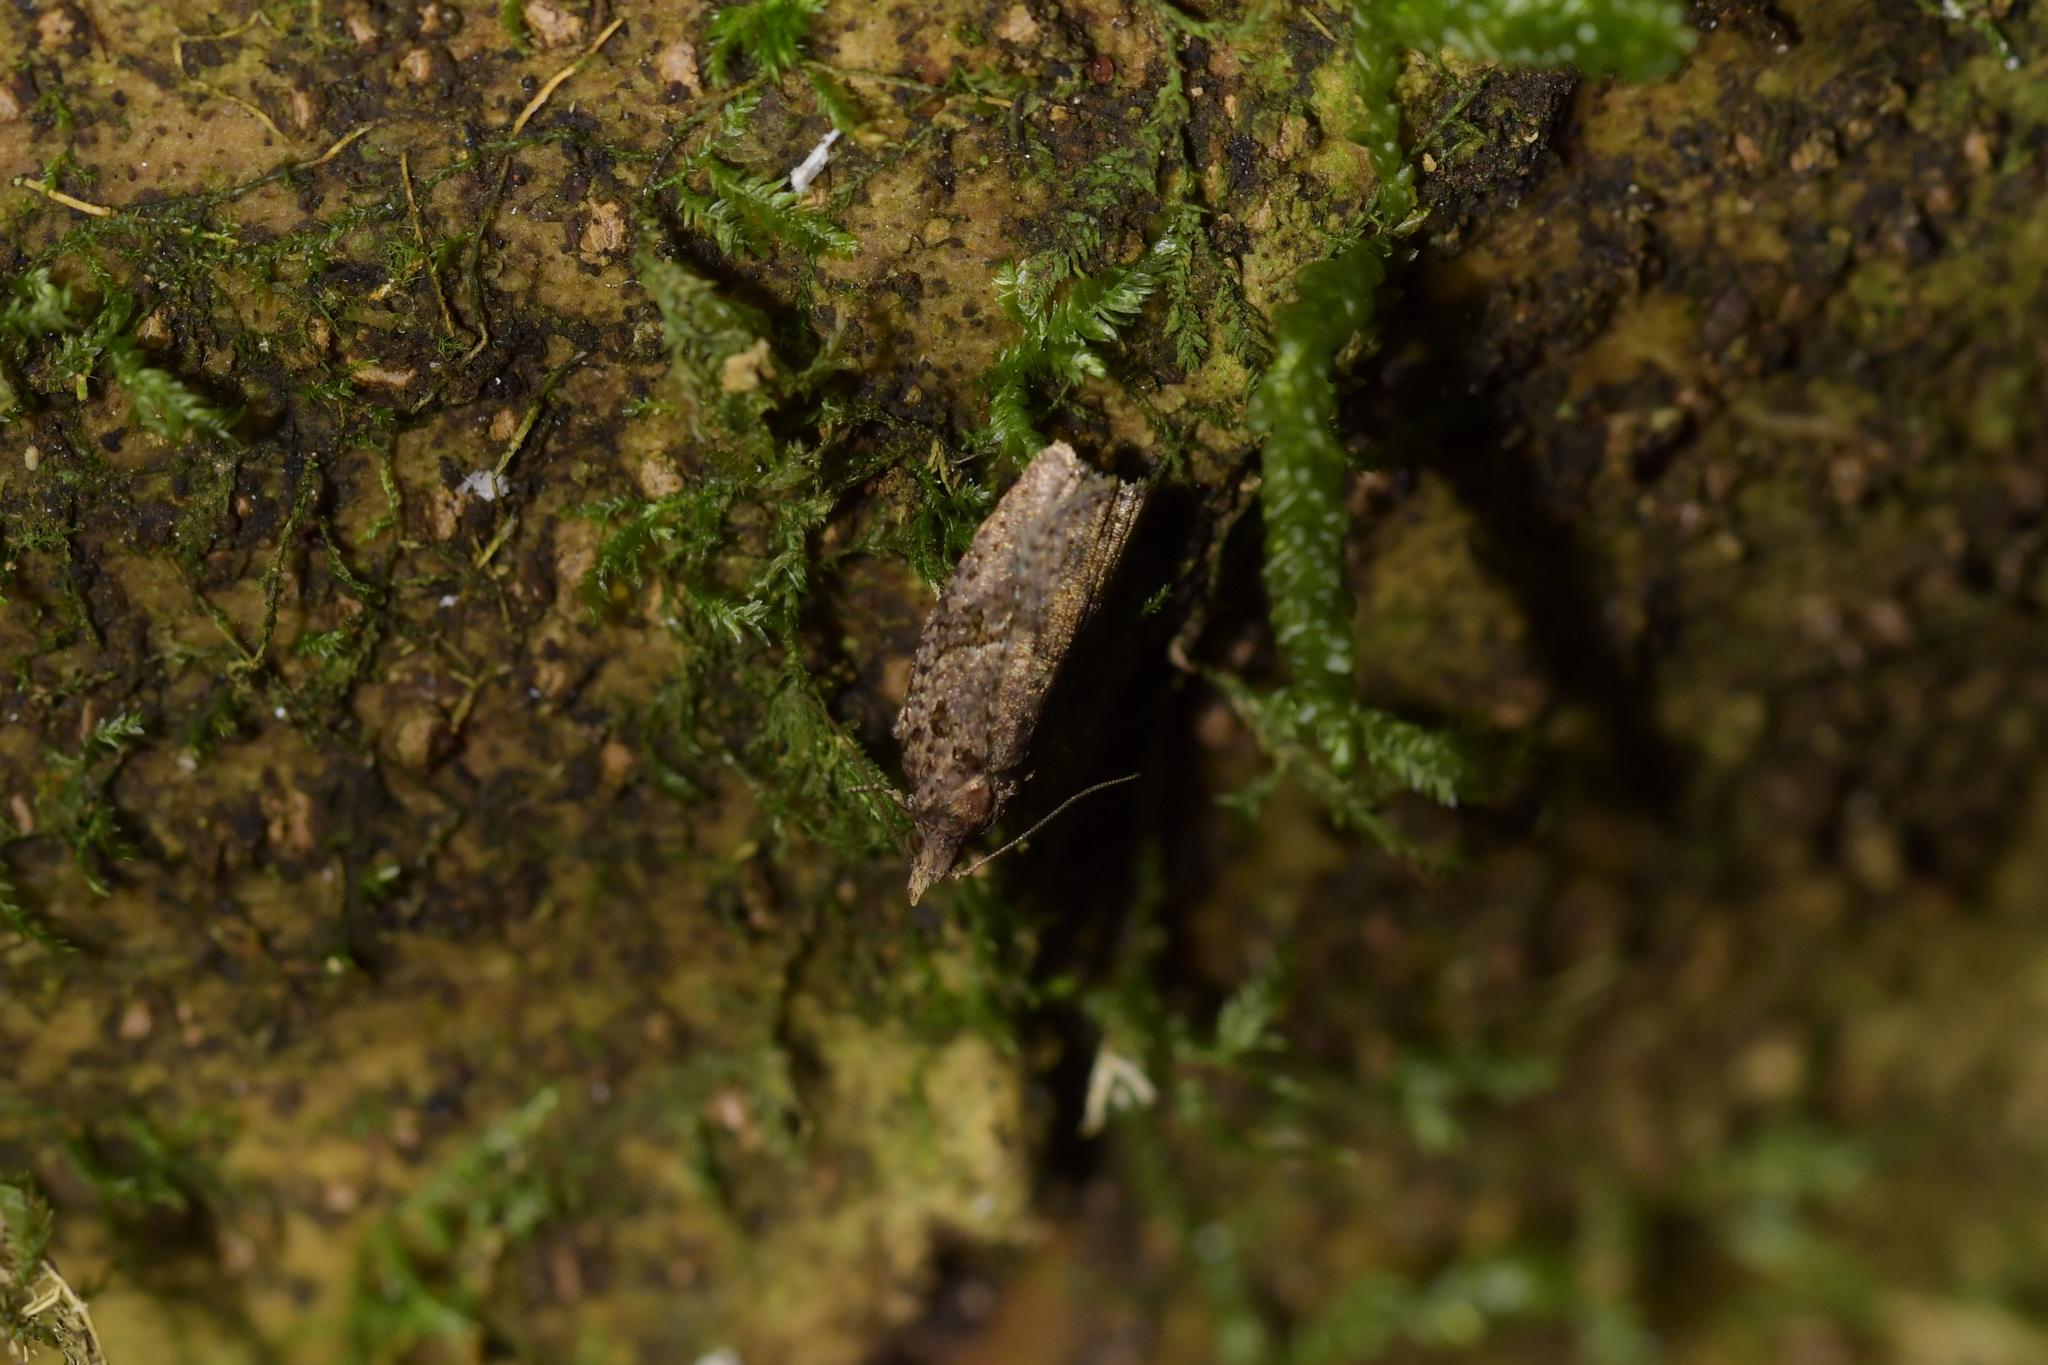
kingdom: Animalia
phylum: Arthropoda
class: Insecta
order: Lepidoptera
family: Tortricidae
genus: Ctenopseustis
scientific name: Ctenopseustis obliquana
